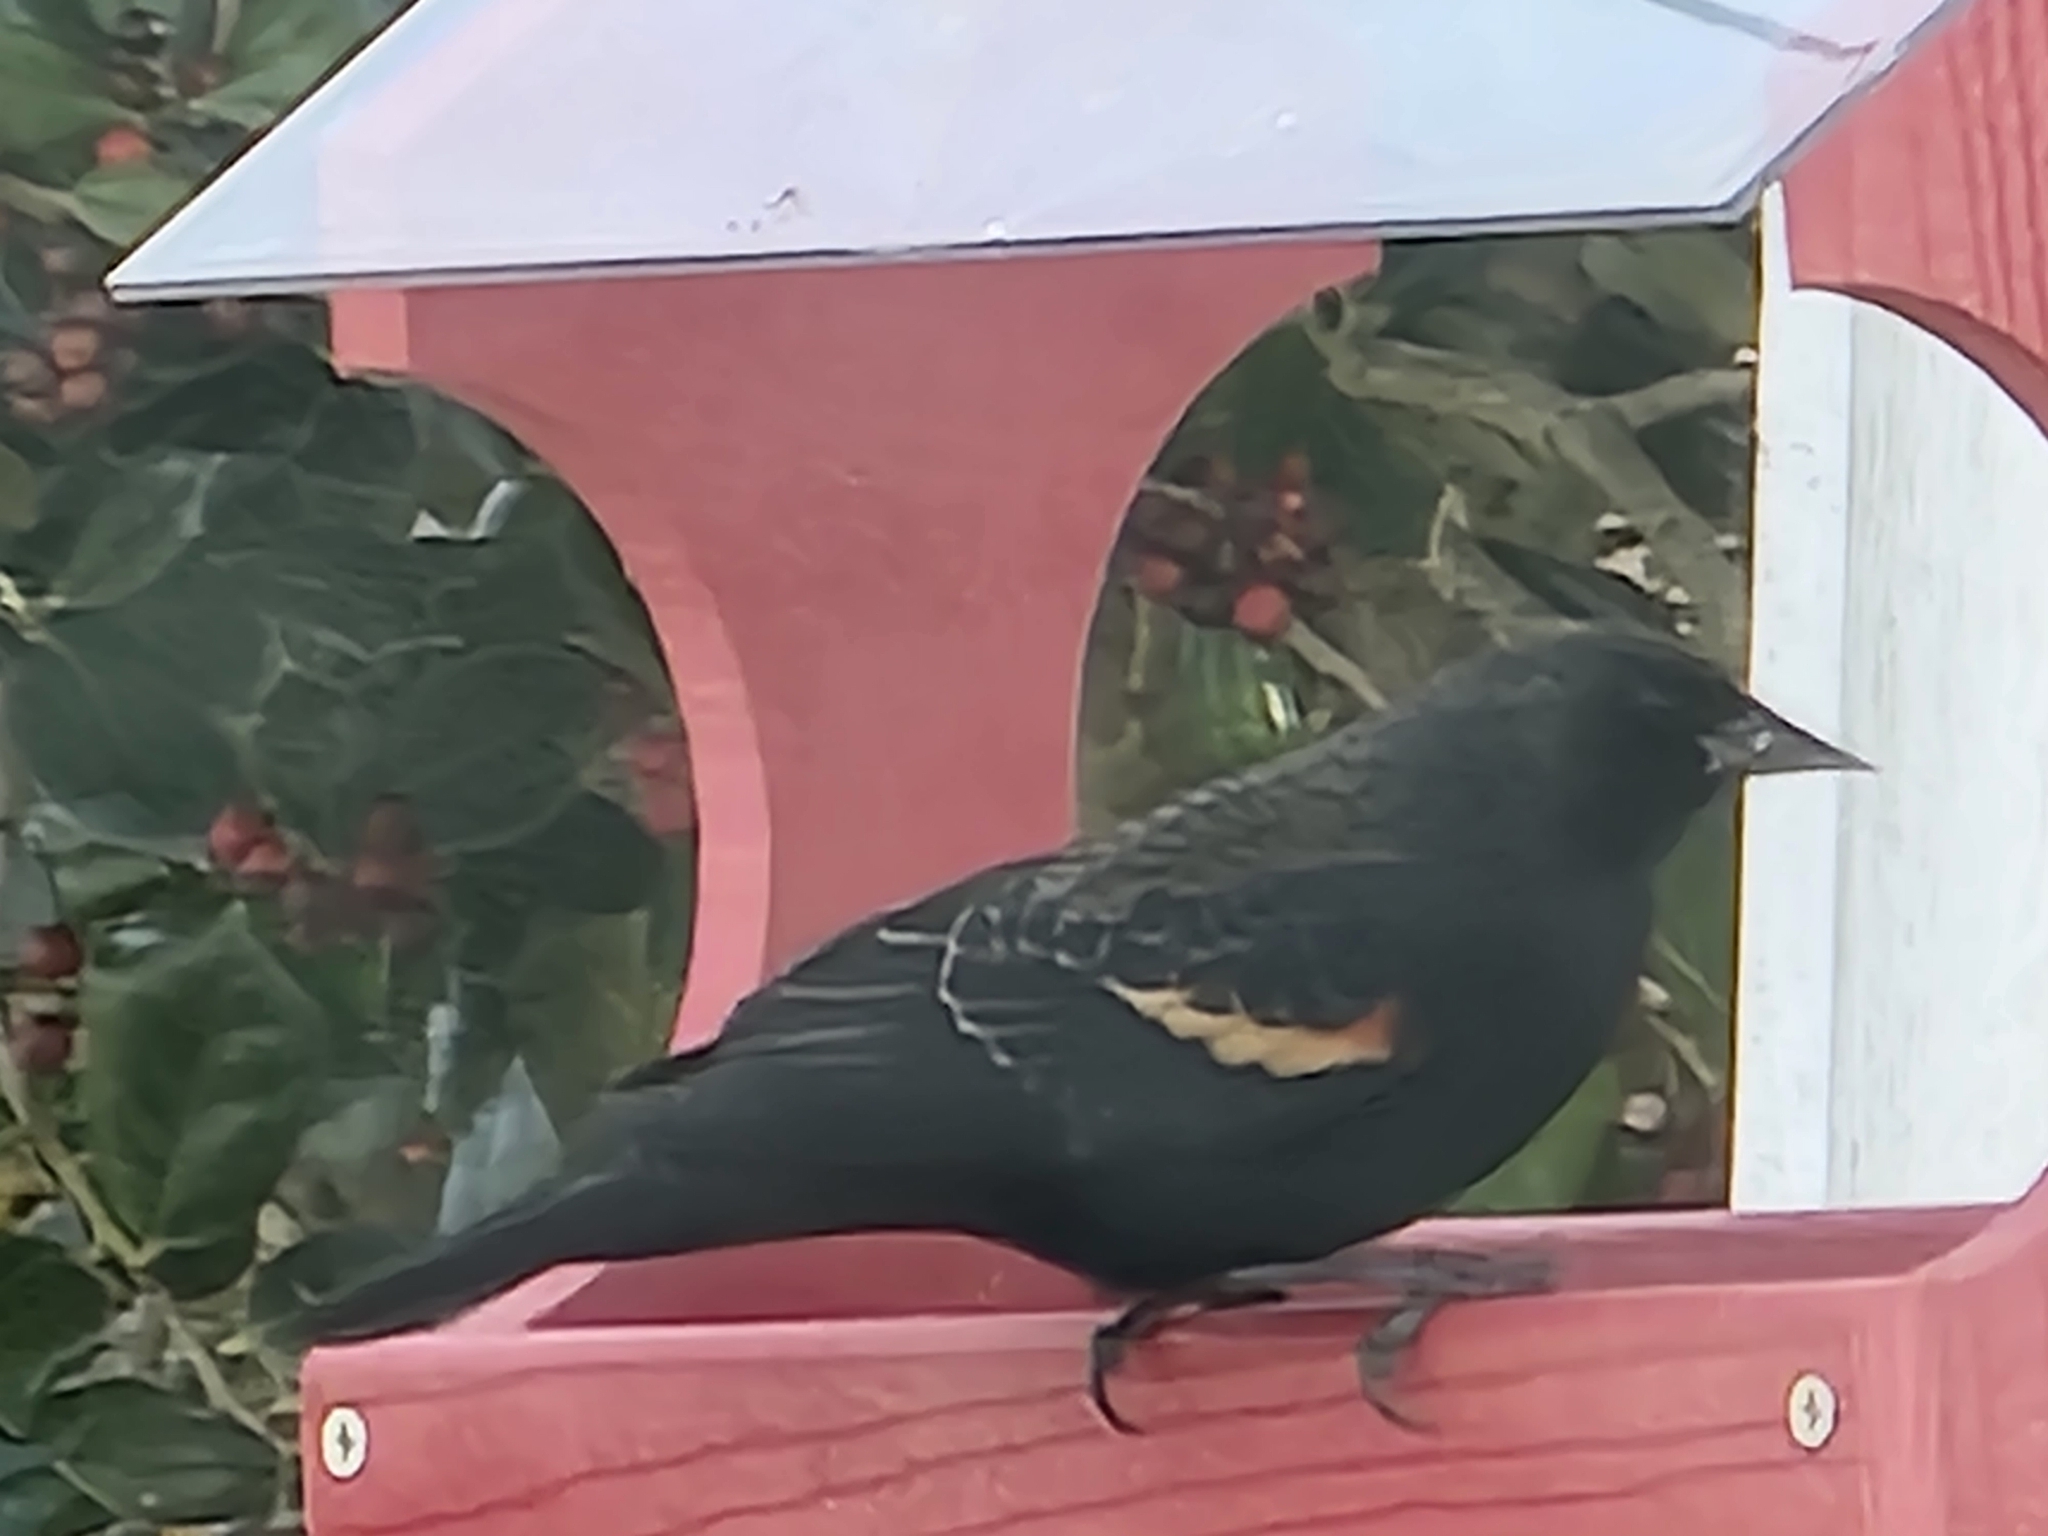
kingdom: Animalia
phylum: Chordata
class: Aves
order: Passeriformes
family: Icteridae
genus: Agelaius
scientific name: Agelaius phoeniceus
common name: Red-winged blackbird
